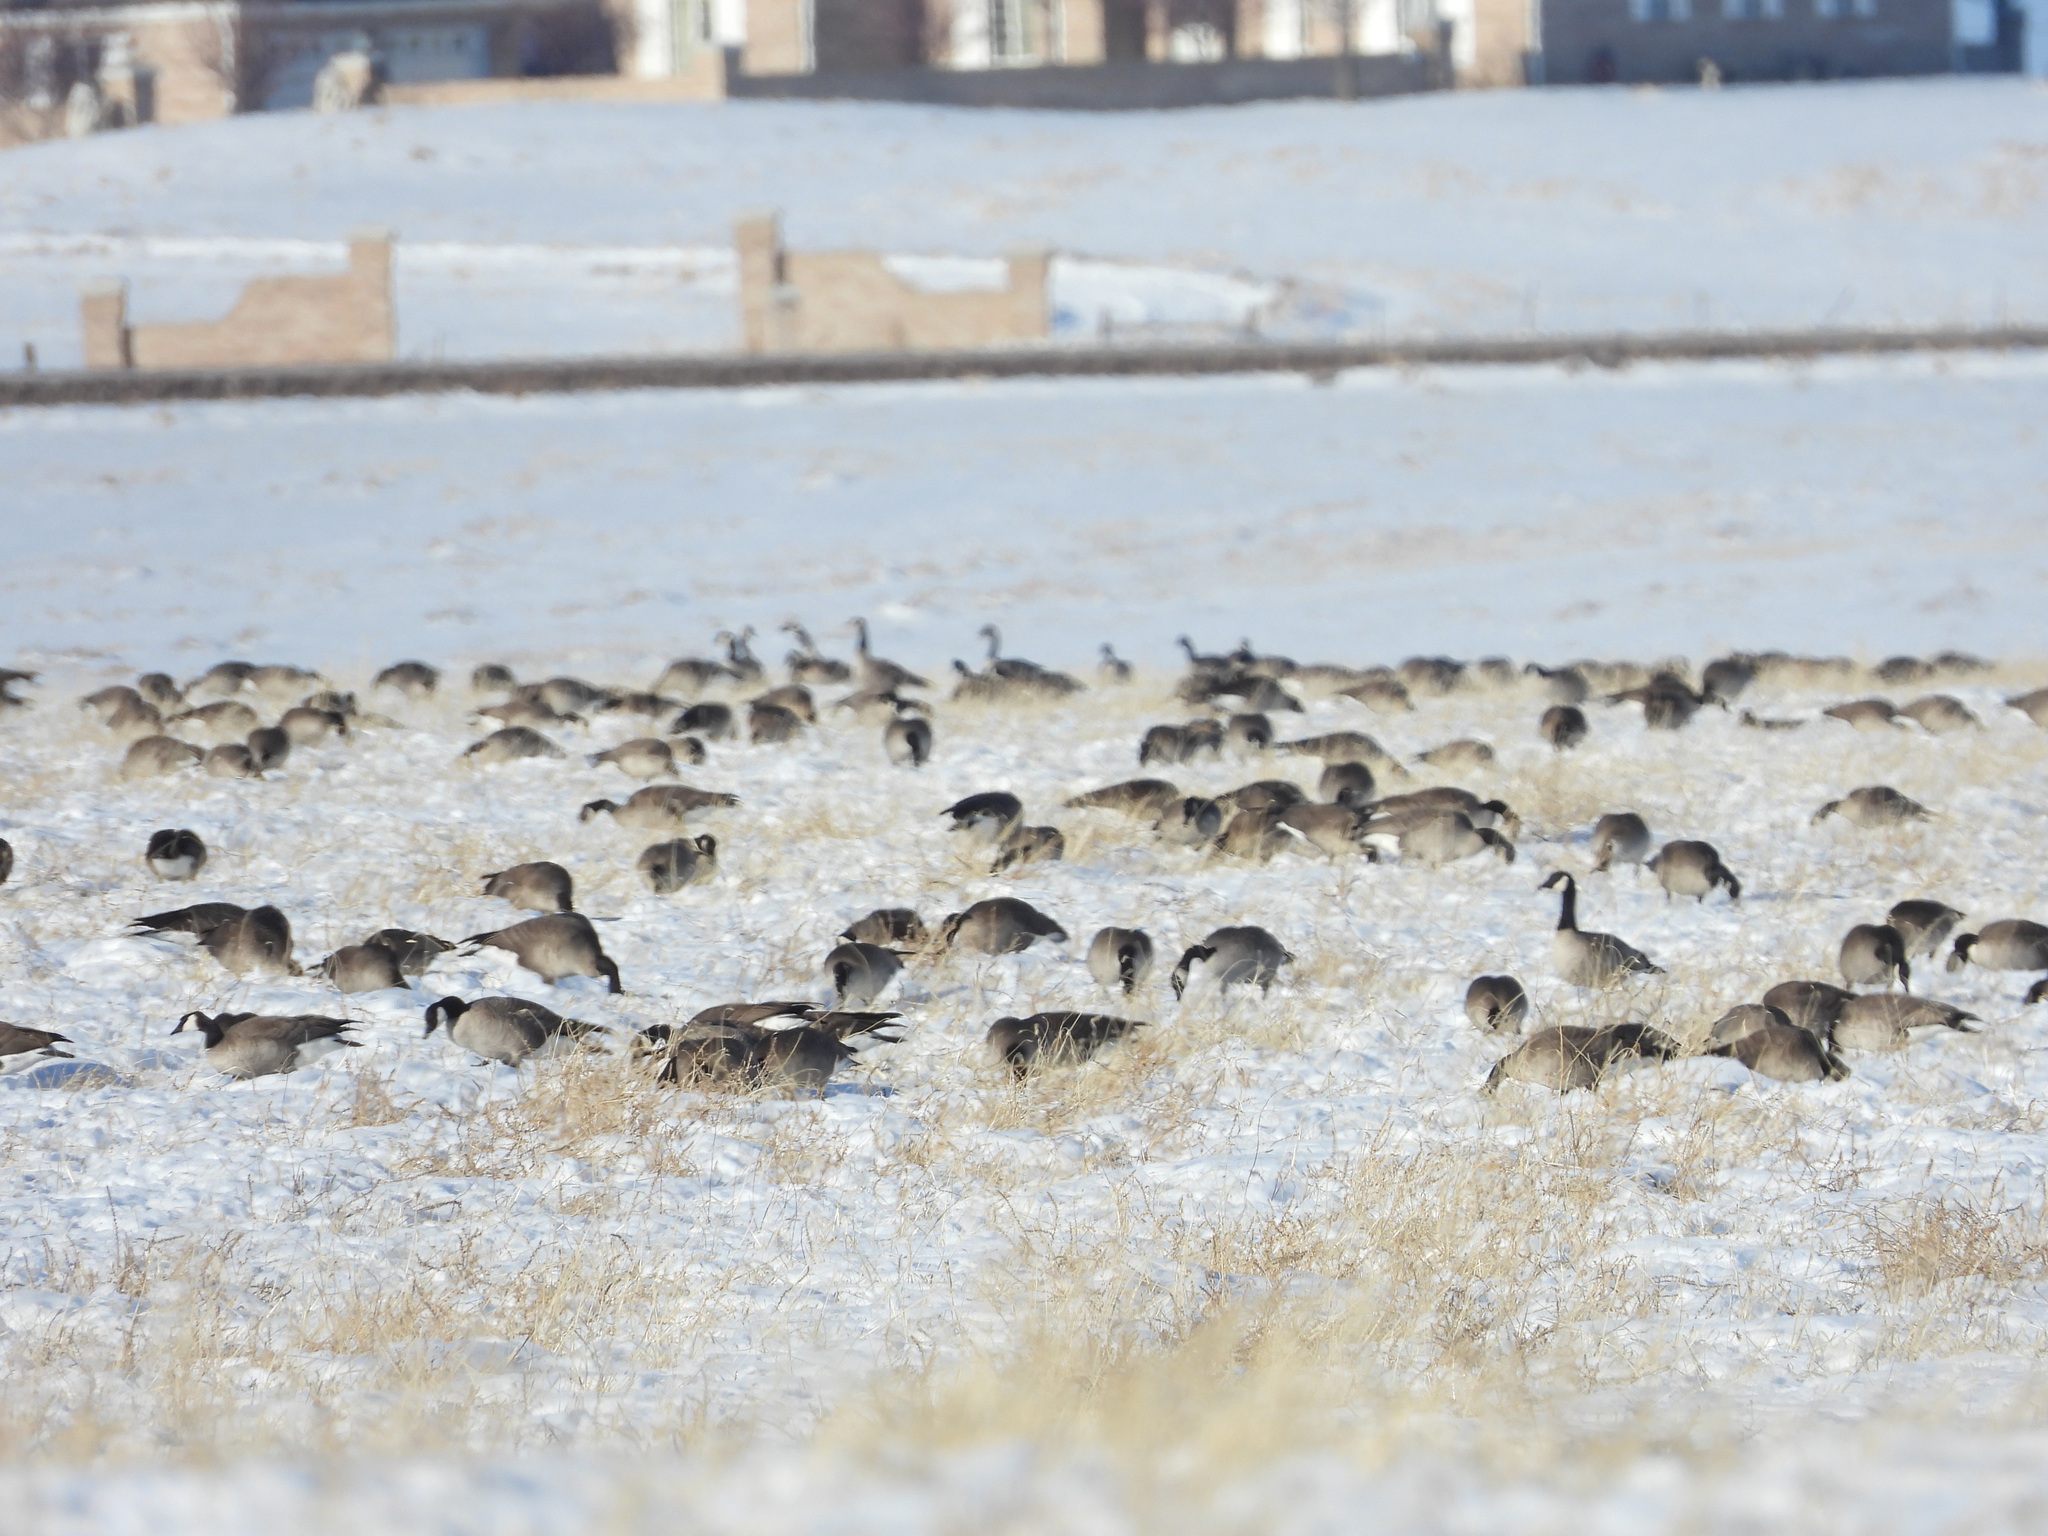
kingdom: Animalia
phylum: Chordata
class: Aves
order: Anseriformes
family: Anatidae
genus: Branta
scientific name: Branta hutchinsii
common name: Cackling goose
